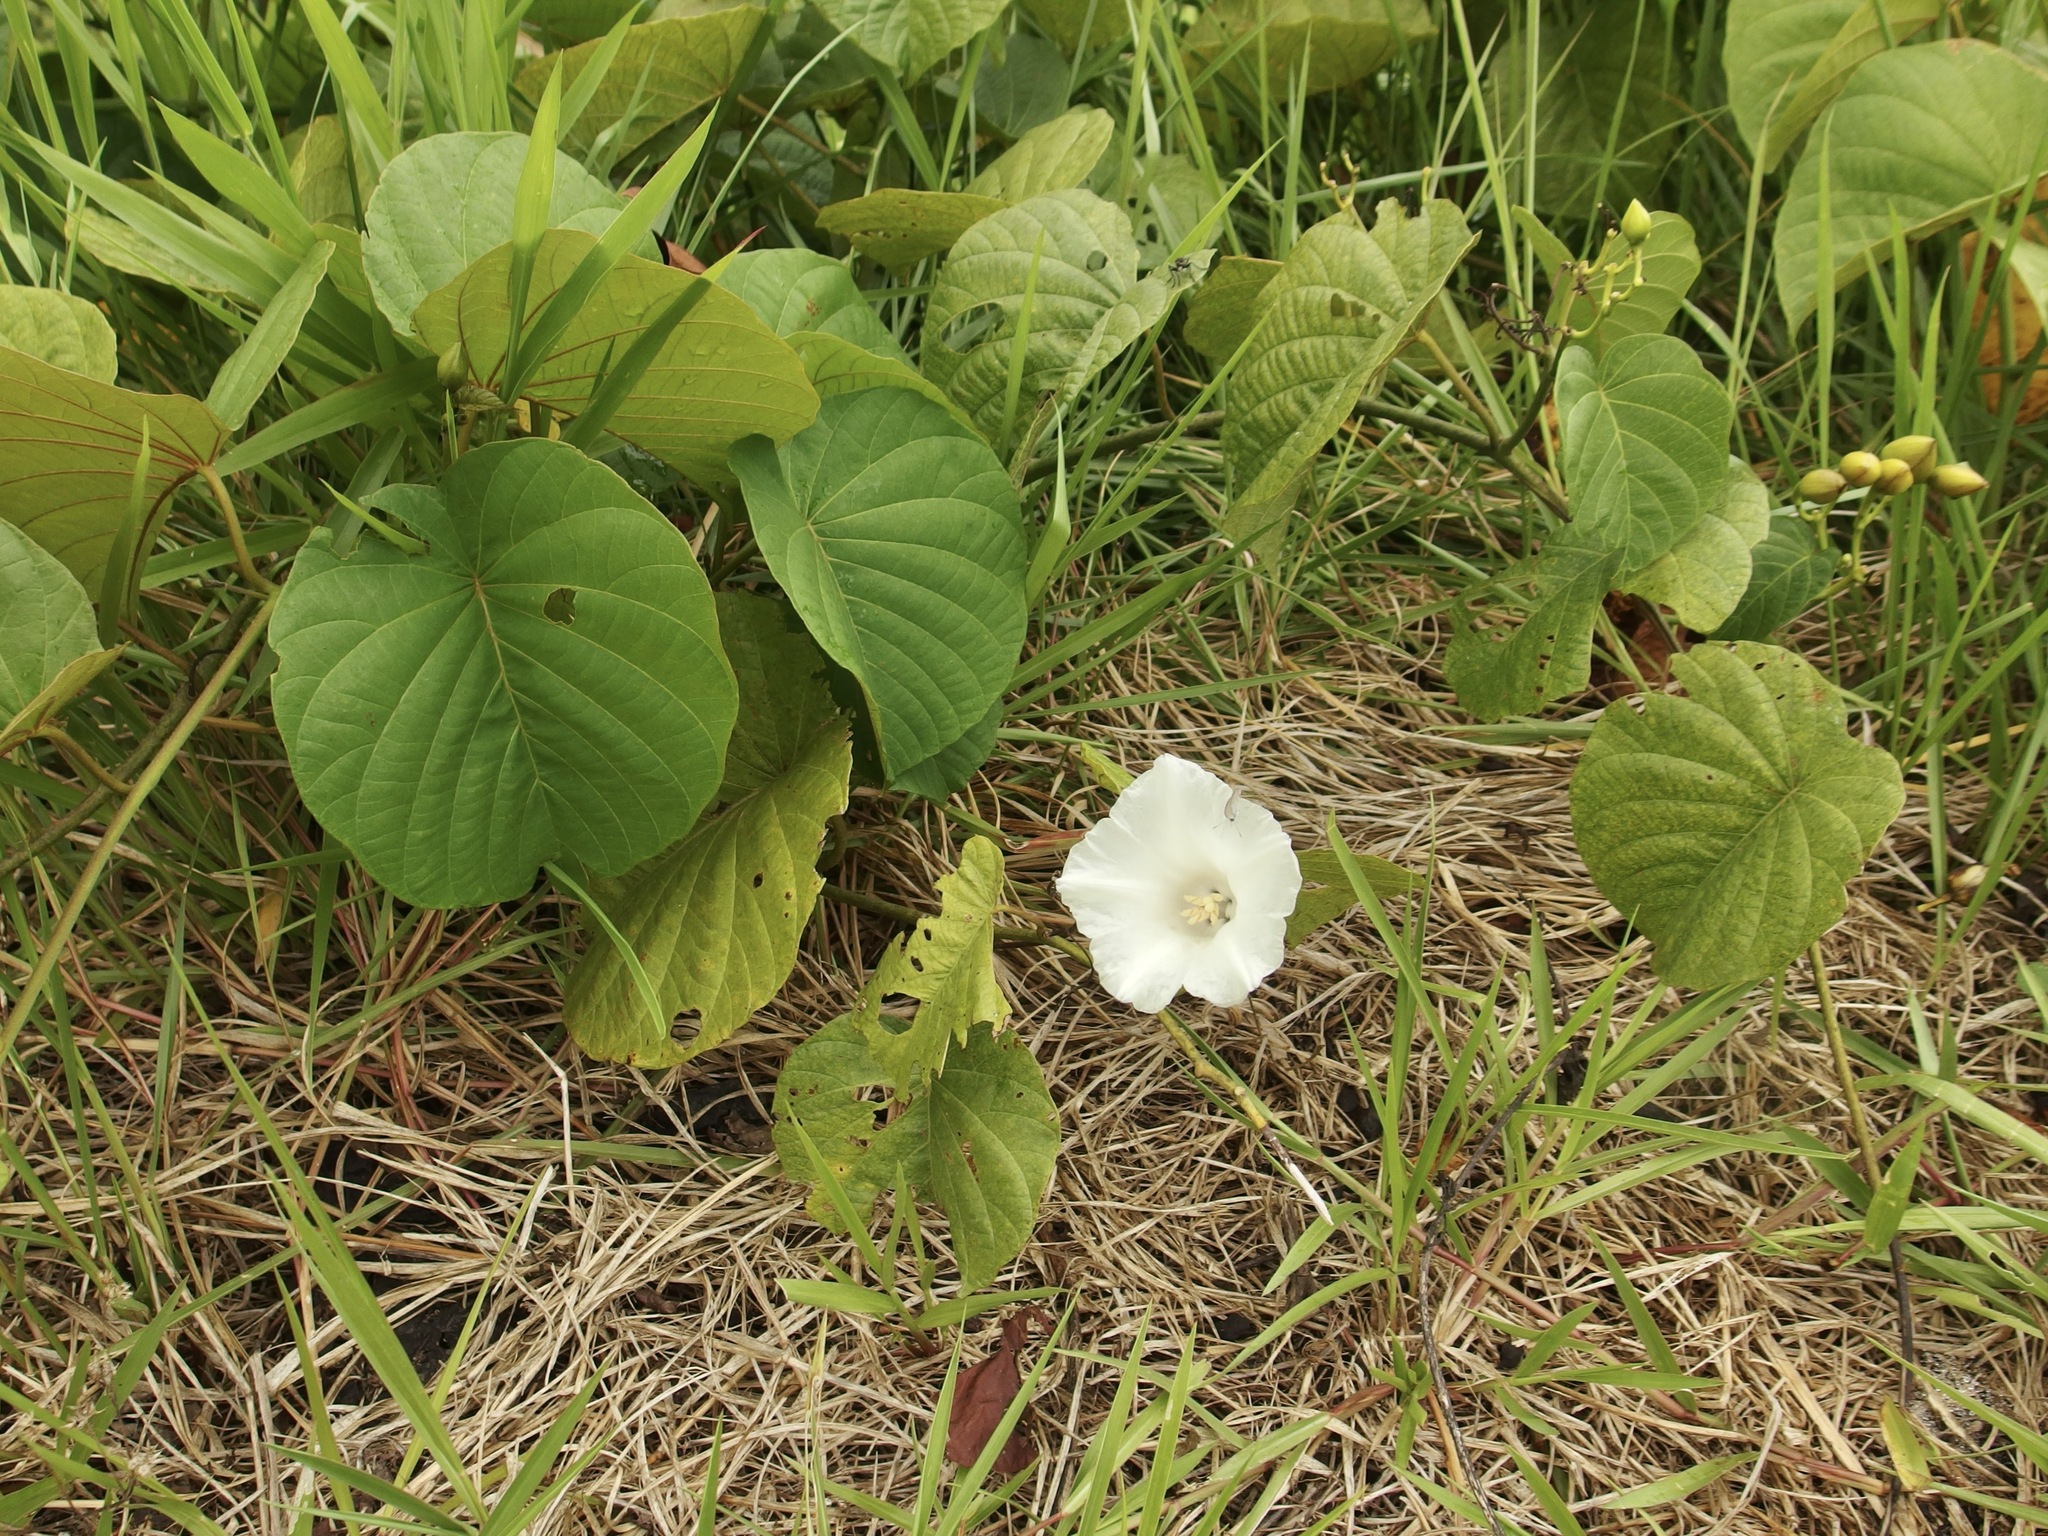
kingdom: Plantae
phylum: Tracheophyta
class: Magnoliopsida
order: Solanales
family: Convolvulaceae
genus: Decalobanthus
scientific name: Decalobanthus peltatus
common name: Merremia
